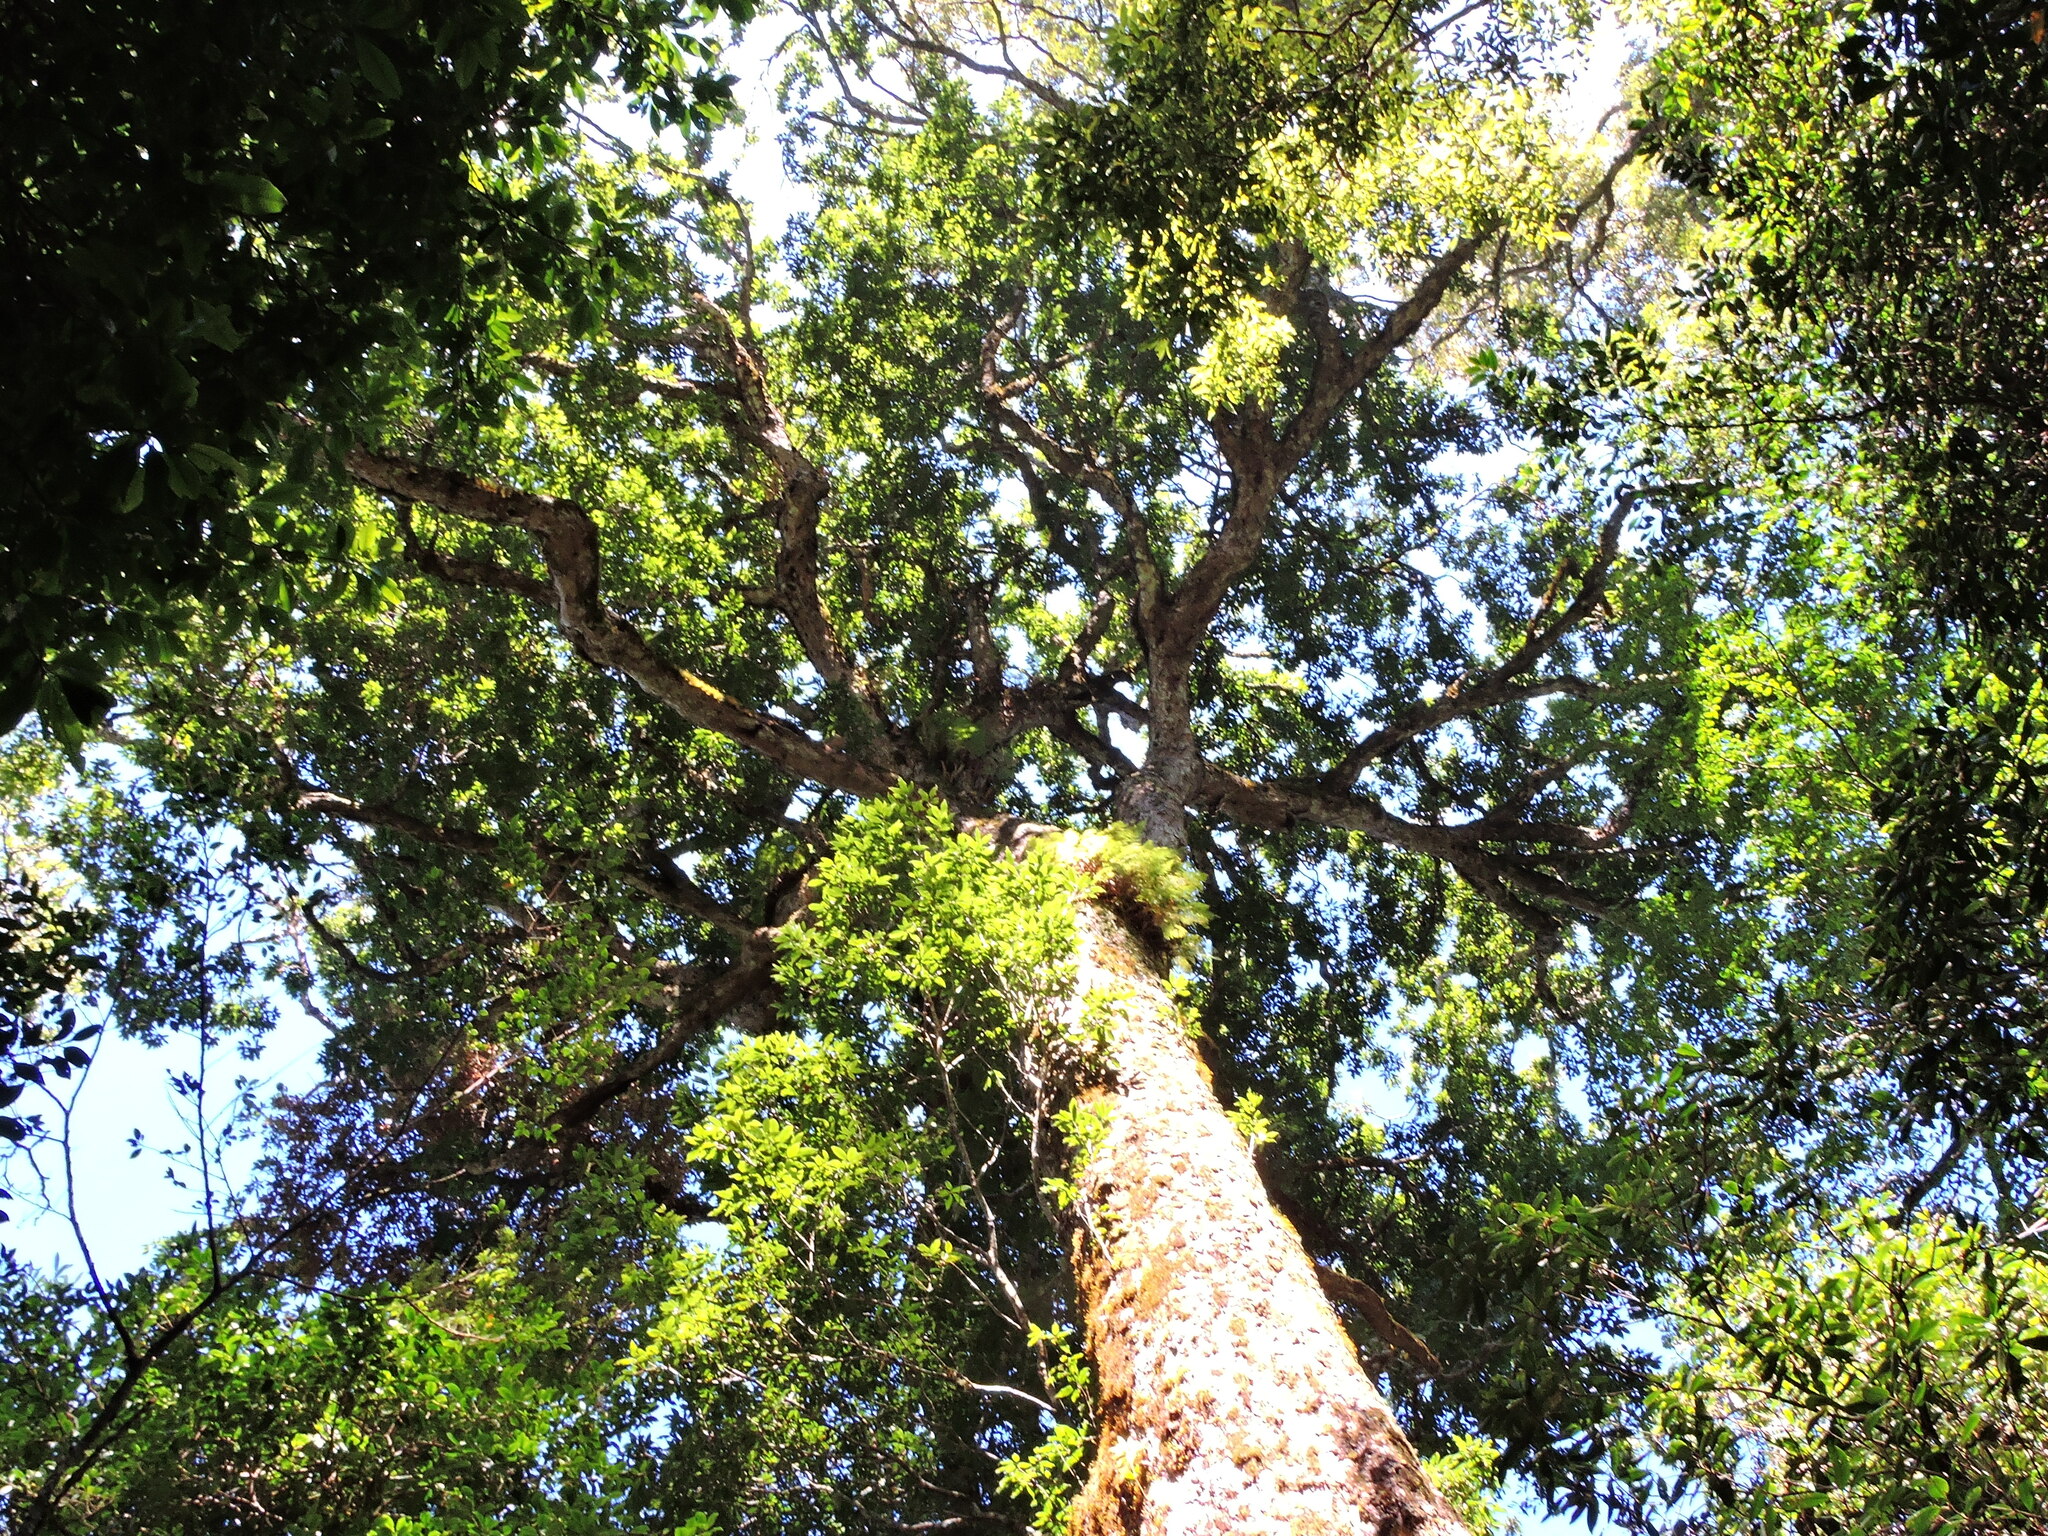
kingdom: Plantae
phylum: Tracheophyta
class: Magnoliopsida
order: Fagales
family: Fagaceae
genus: Quercus
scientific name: Quercus morii
